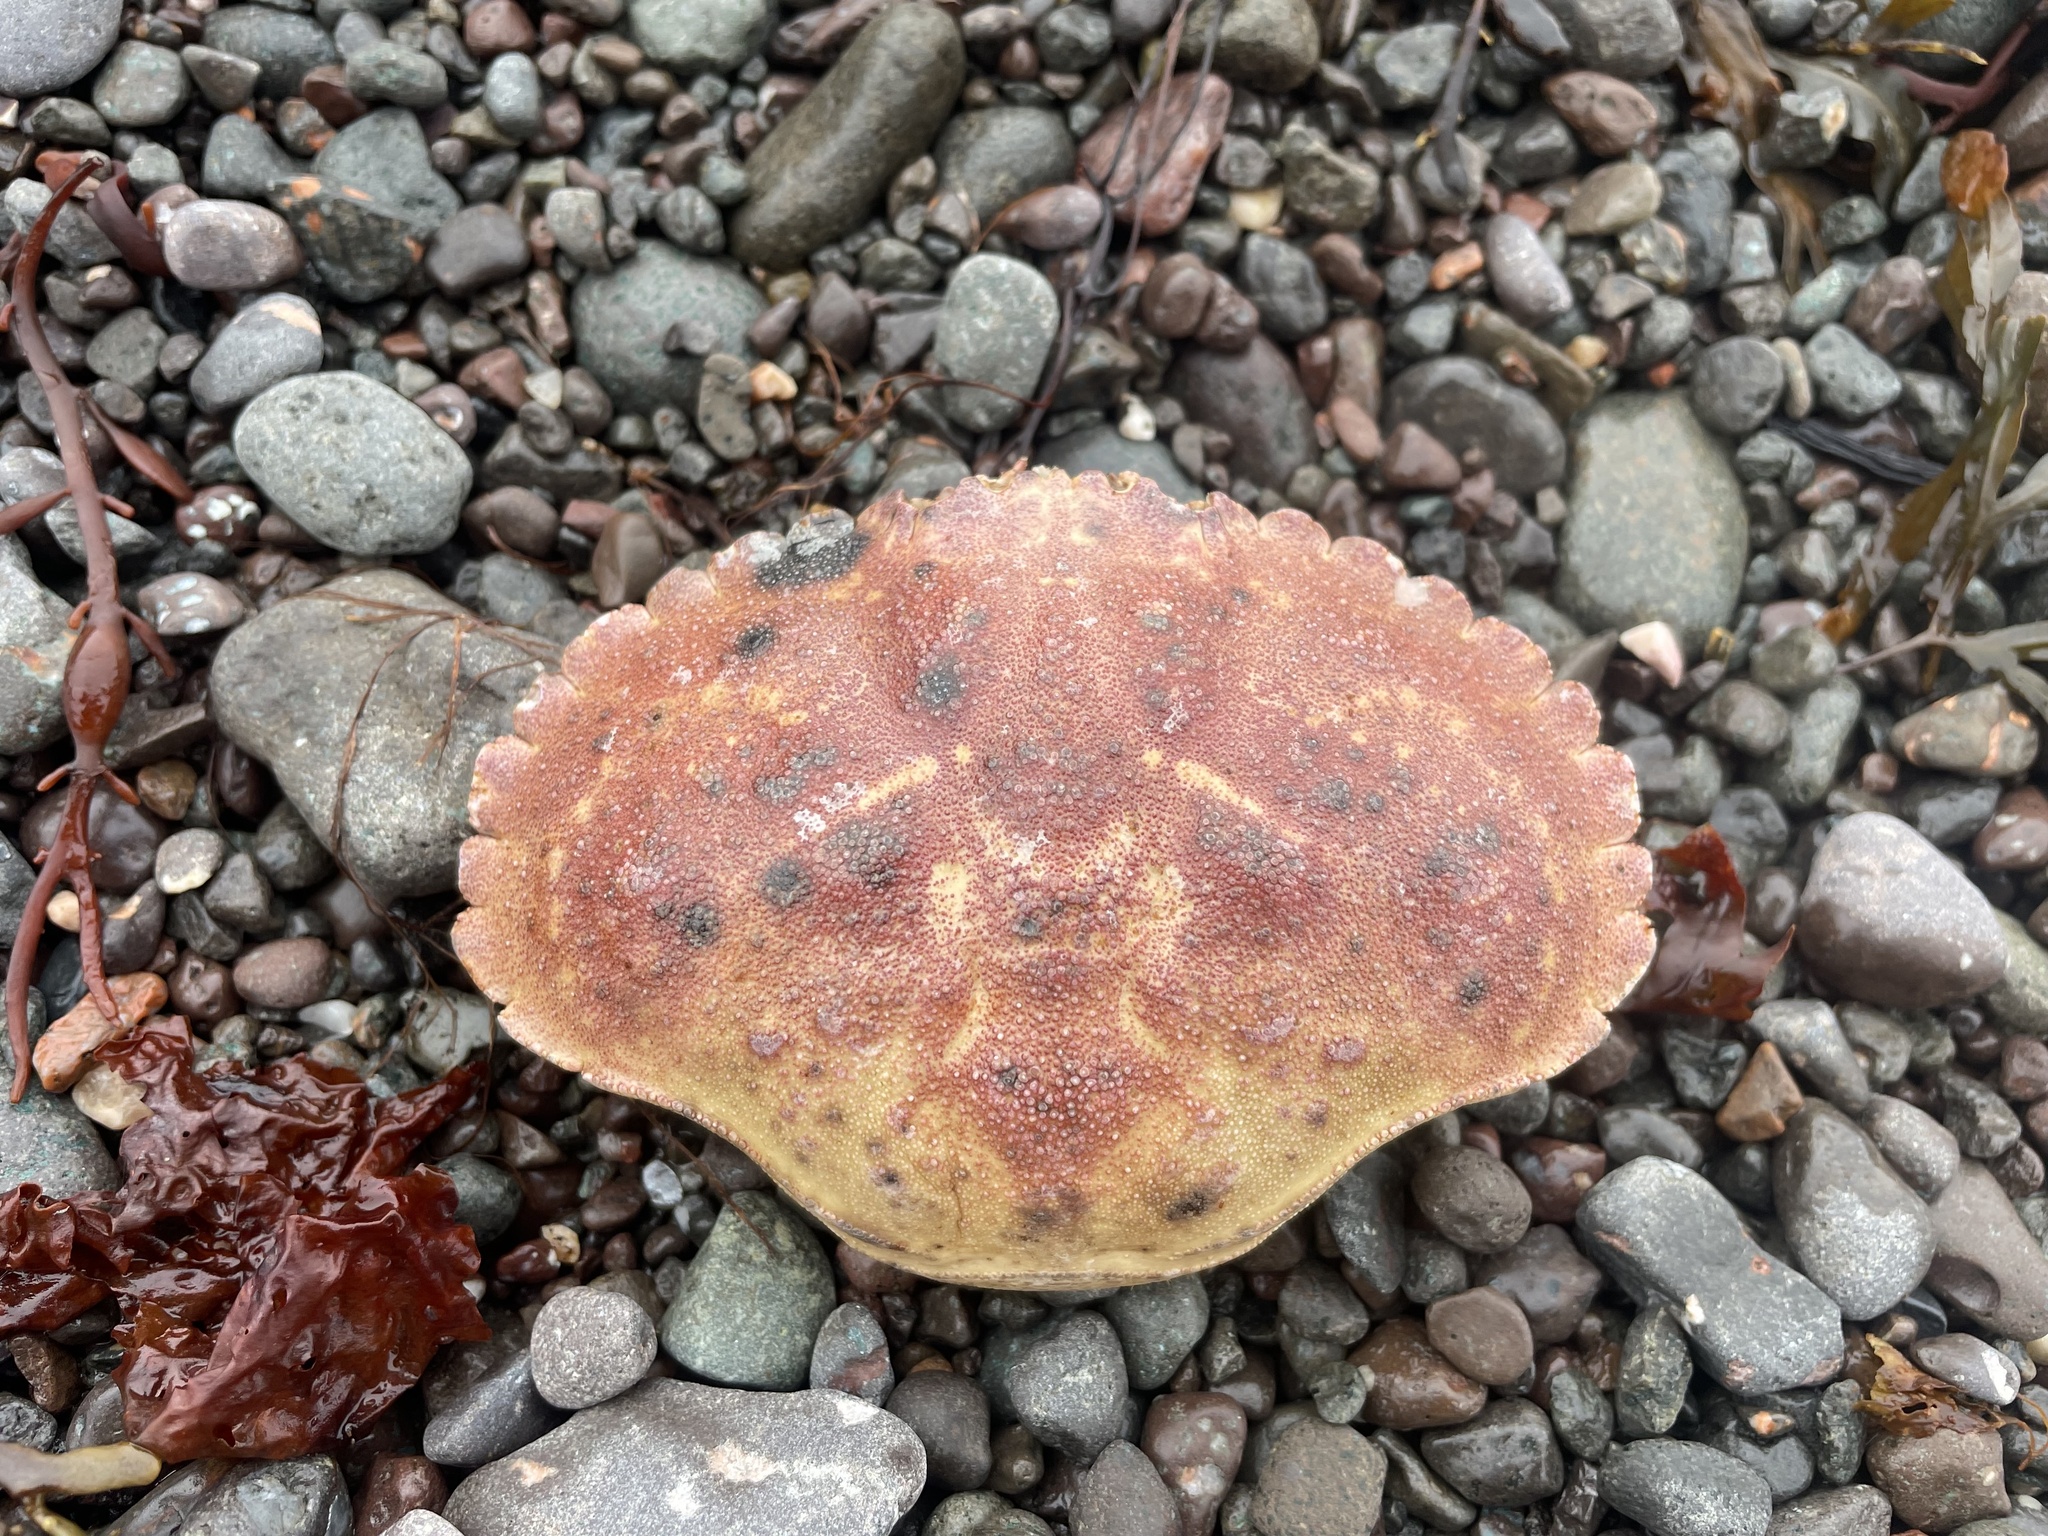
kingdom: Animalia
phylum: Arthropoda
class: Malacostraca
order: Decapoda
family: Cancridae
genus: Cancer
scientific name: Cancer borealis
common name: Jonah crab
